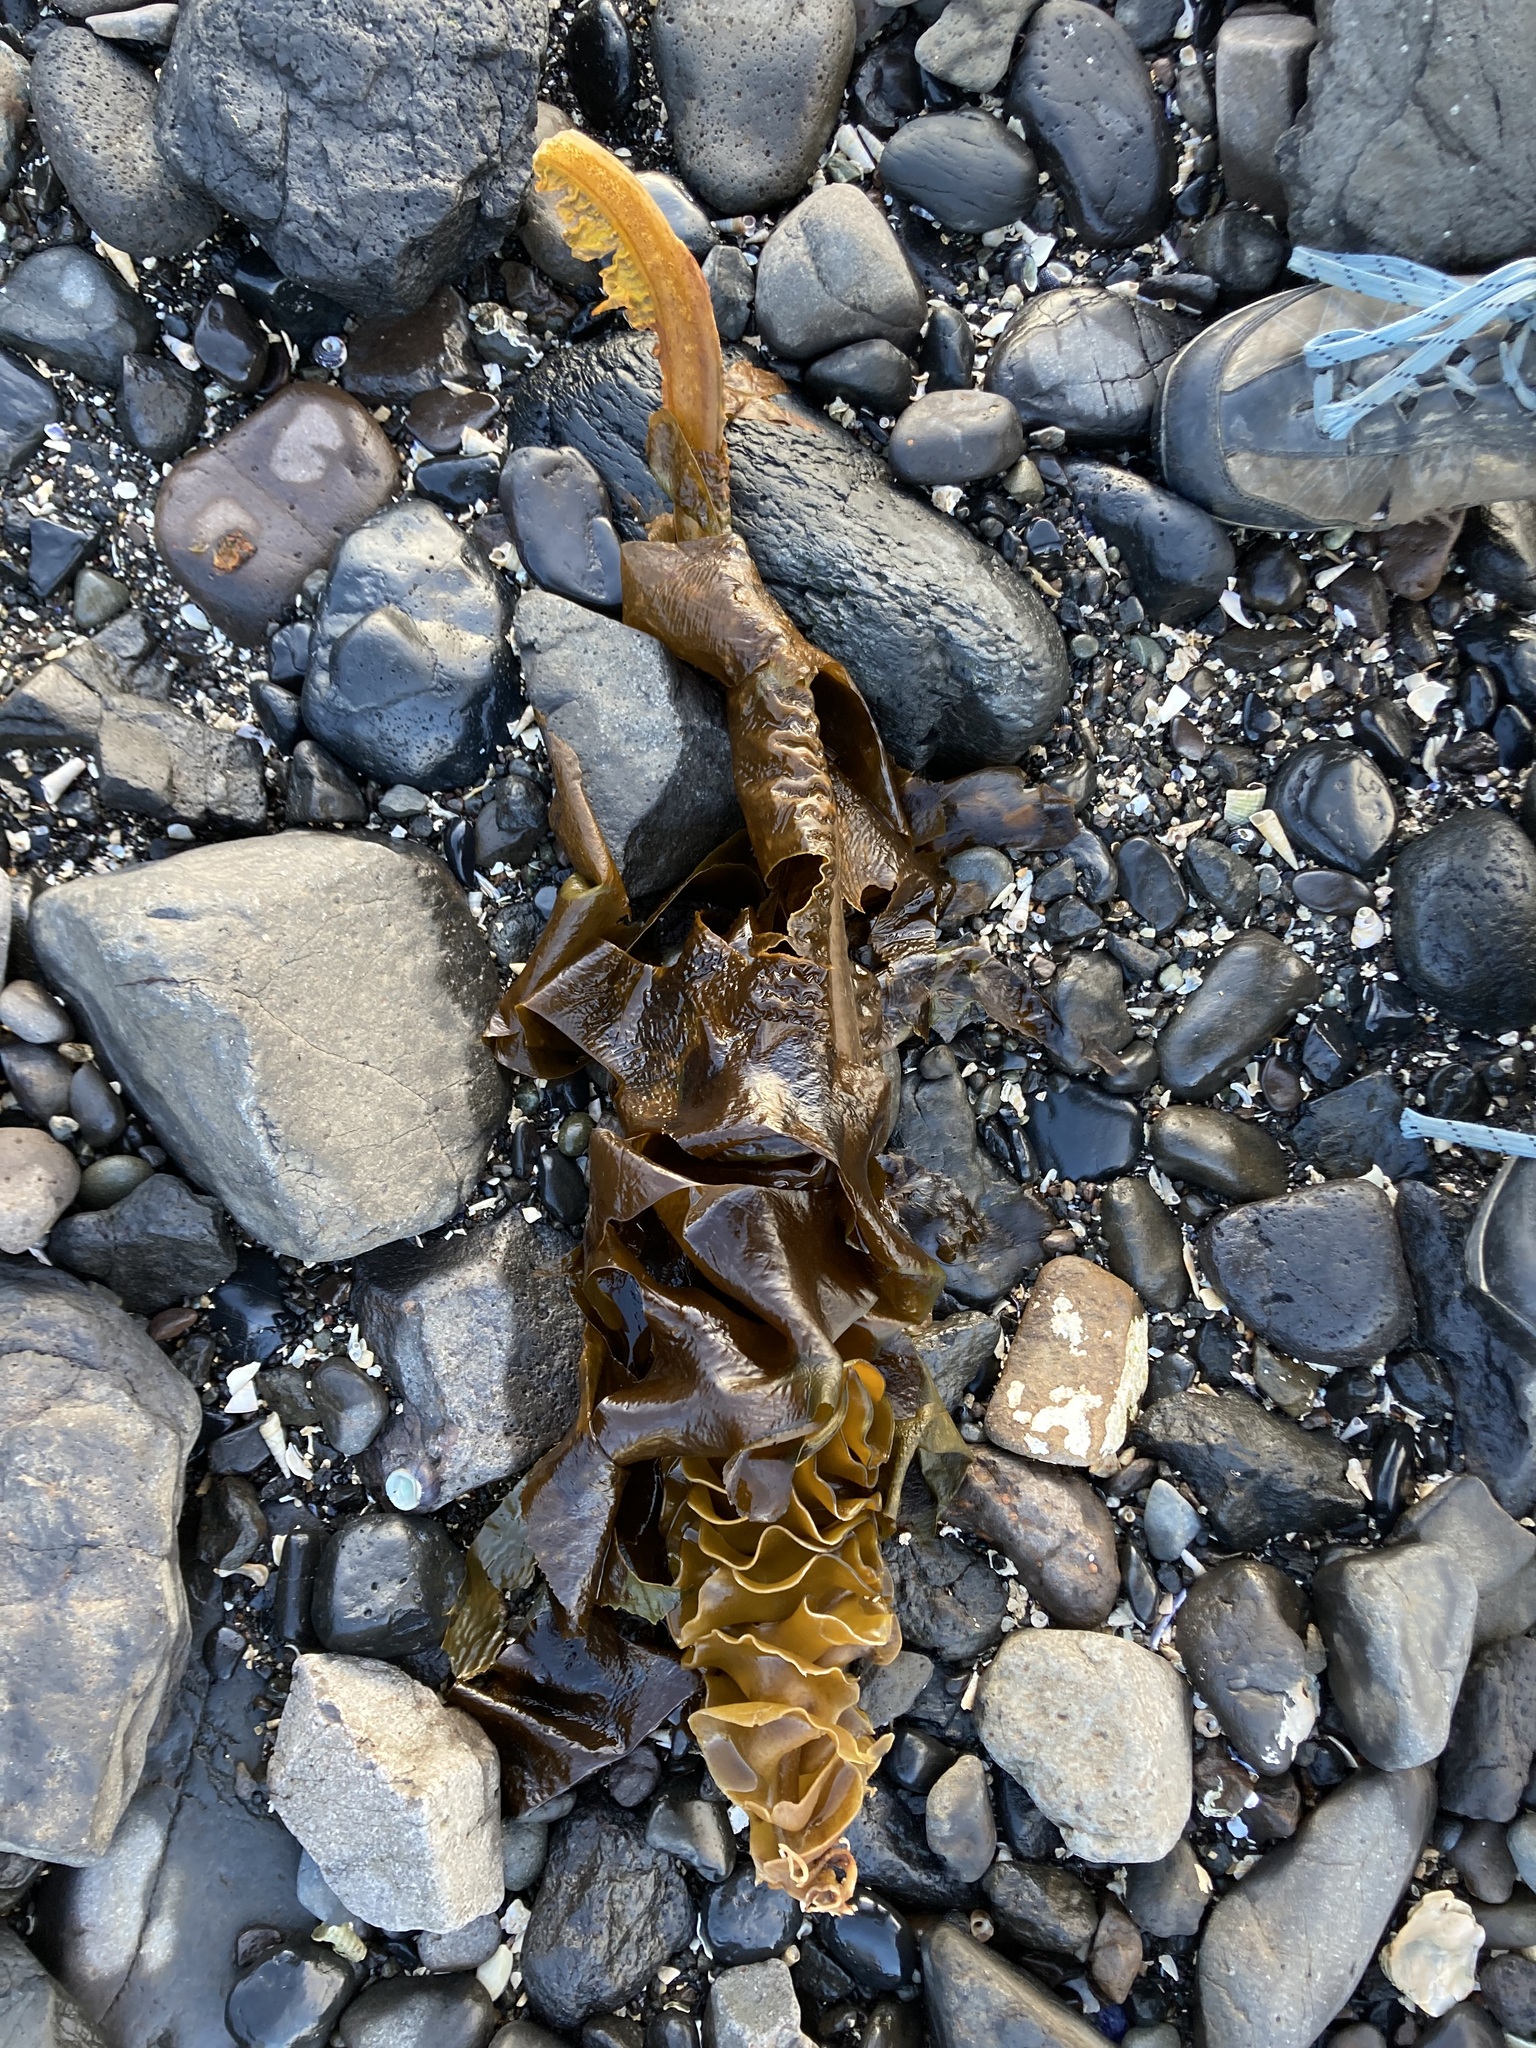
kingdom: Chromista
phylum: Ochrophyta
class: Phaeophyceae
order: Laminariales
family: Alariaceae
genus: Undaria
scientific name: Undaria pinnatifida
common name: Asian kelp
